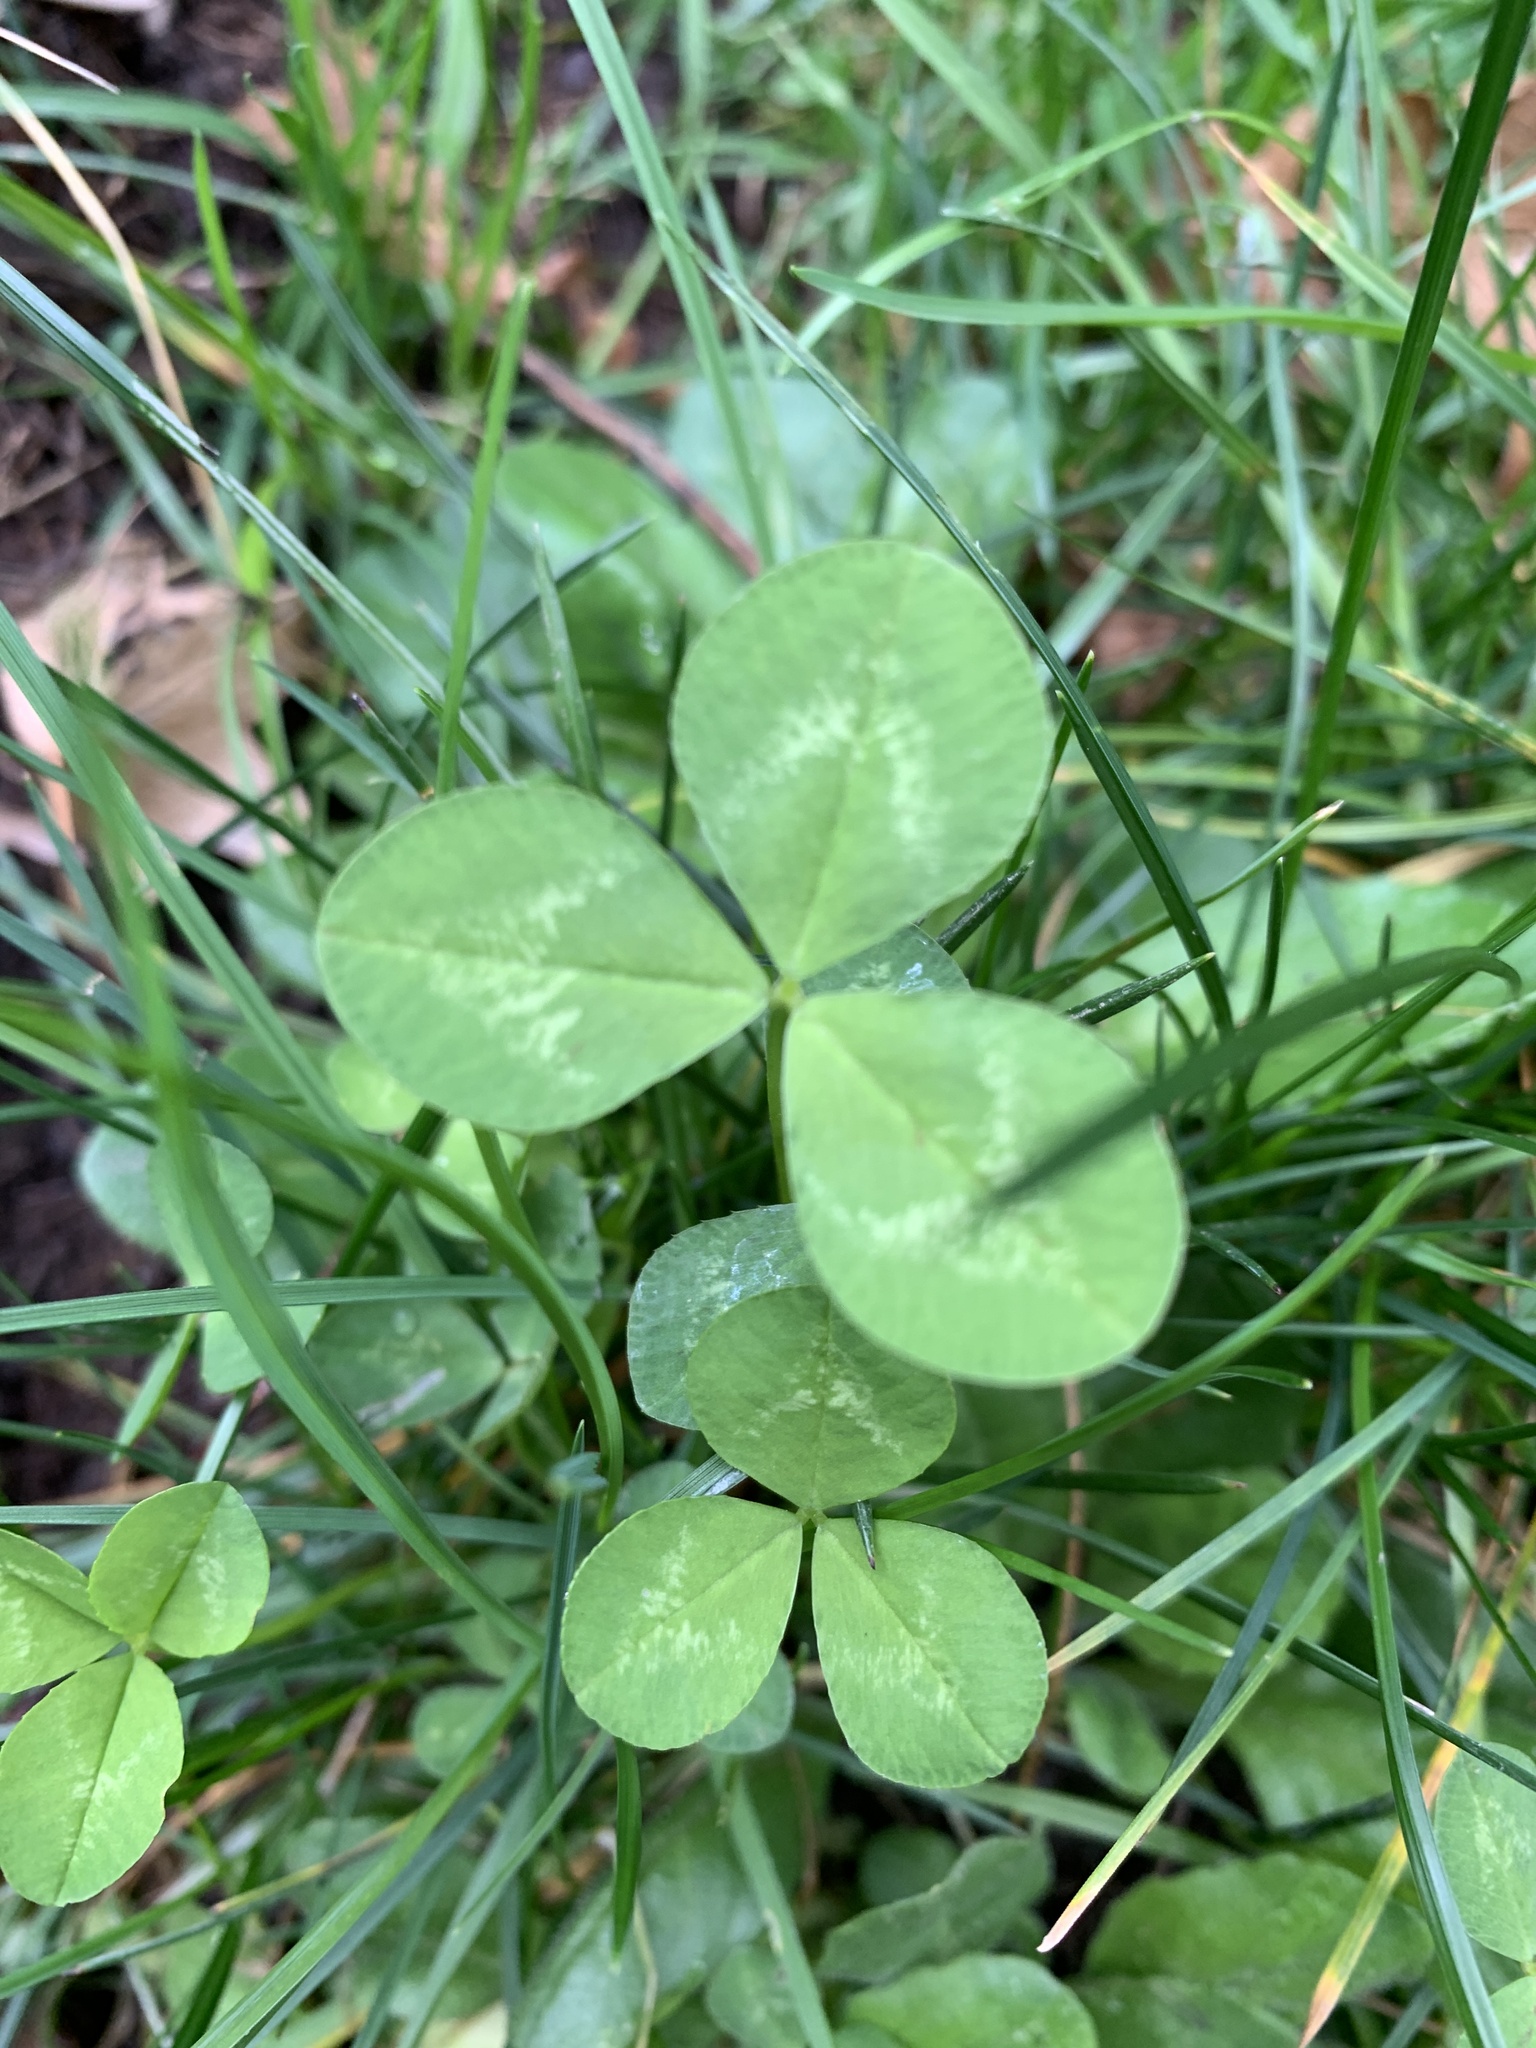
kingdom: Plantae
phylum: Tracheophyta
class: Magnoliopsida
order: Fabales
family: Fabaceae
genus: Trifolium
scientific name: Trifolium repens
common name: White clover
